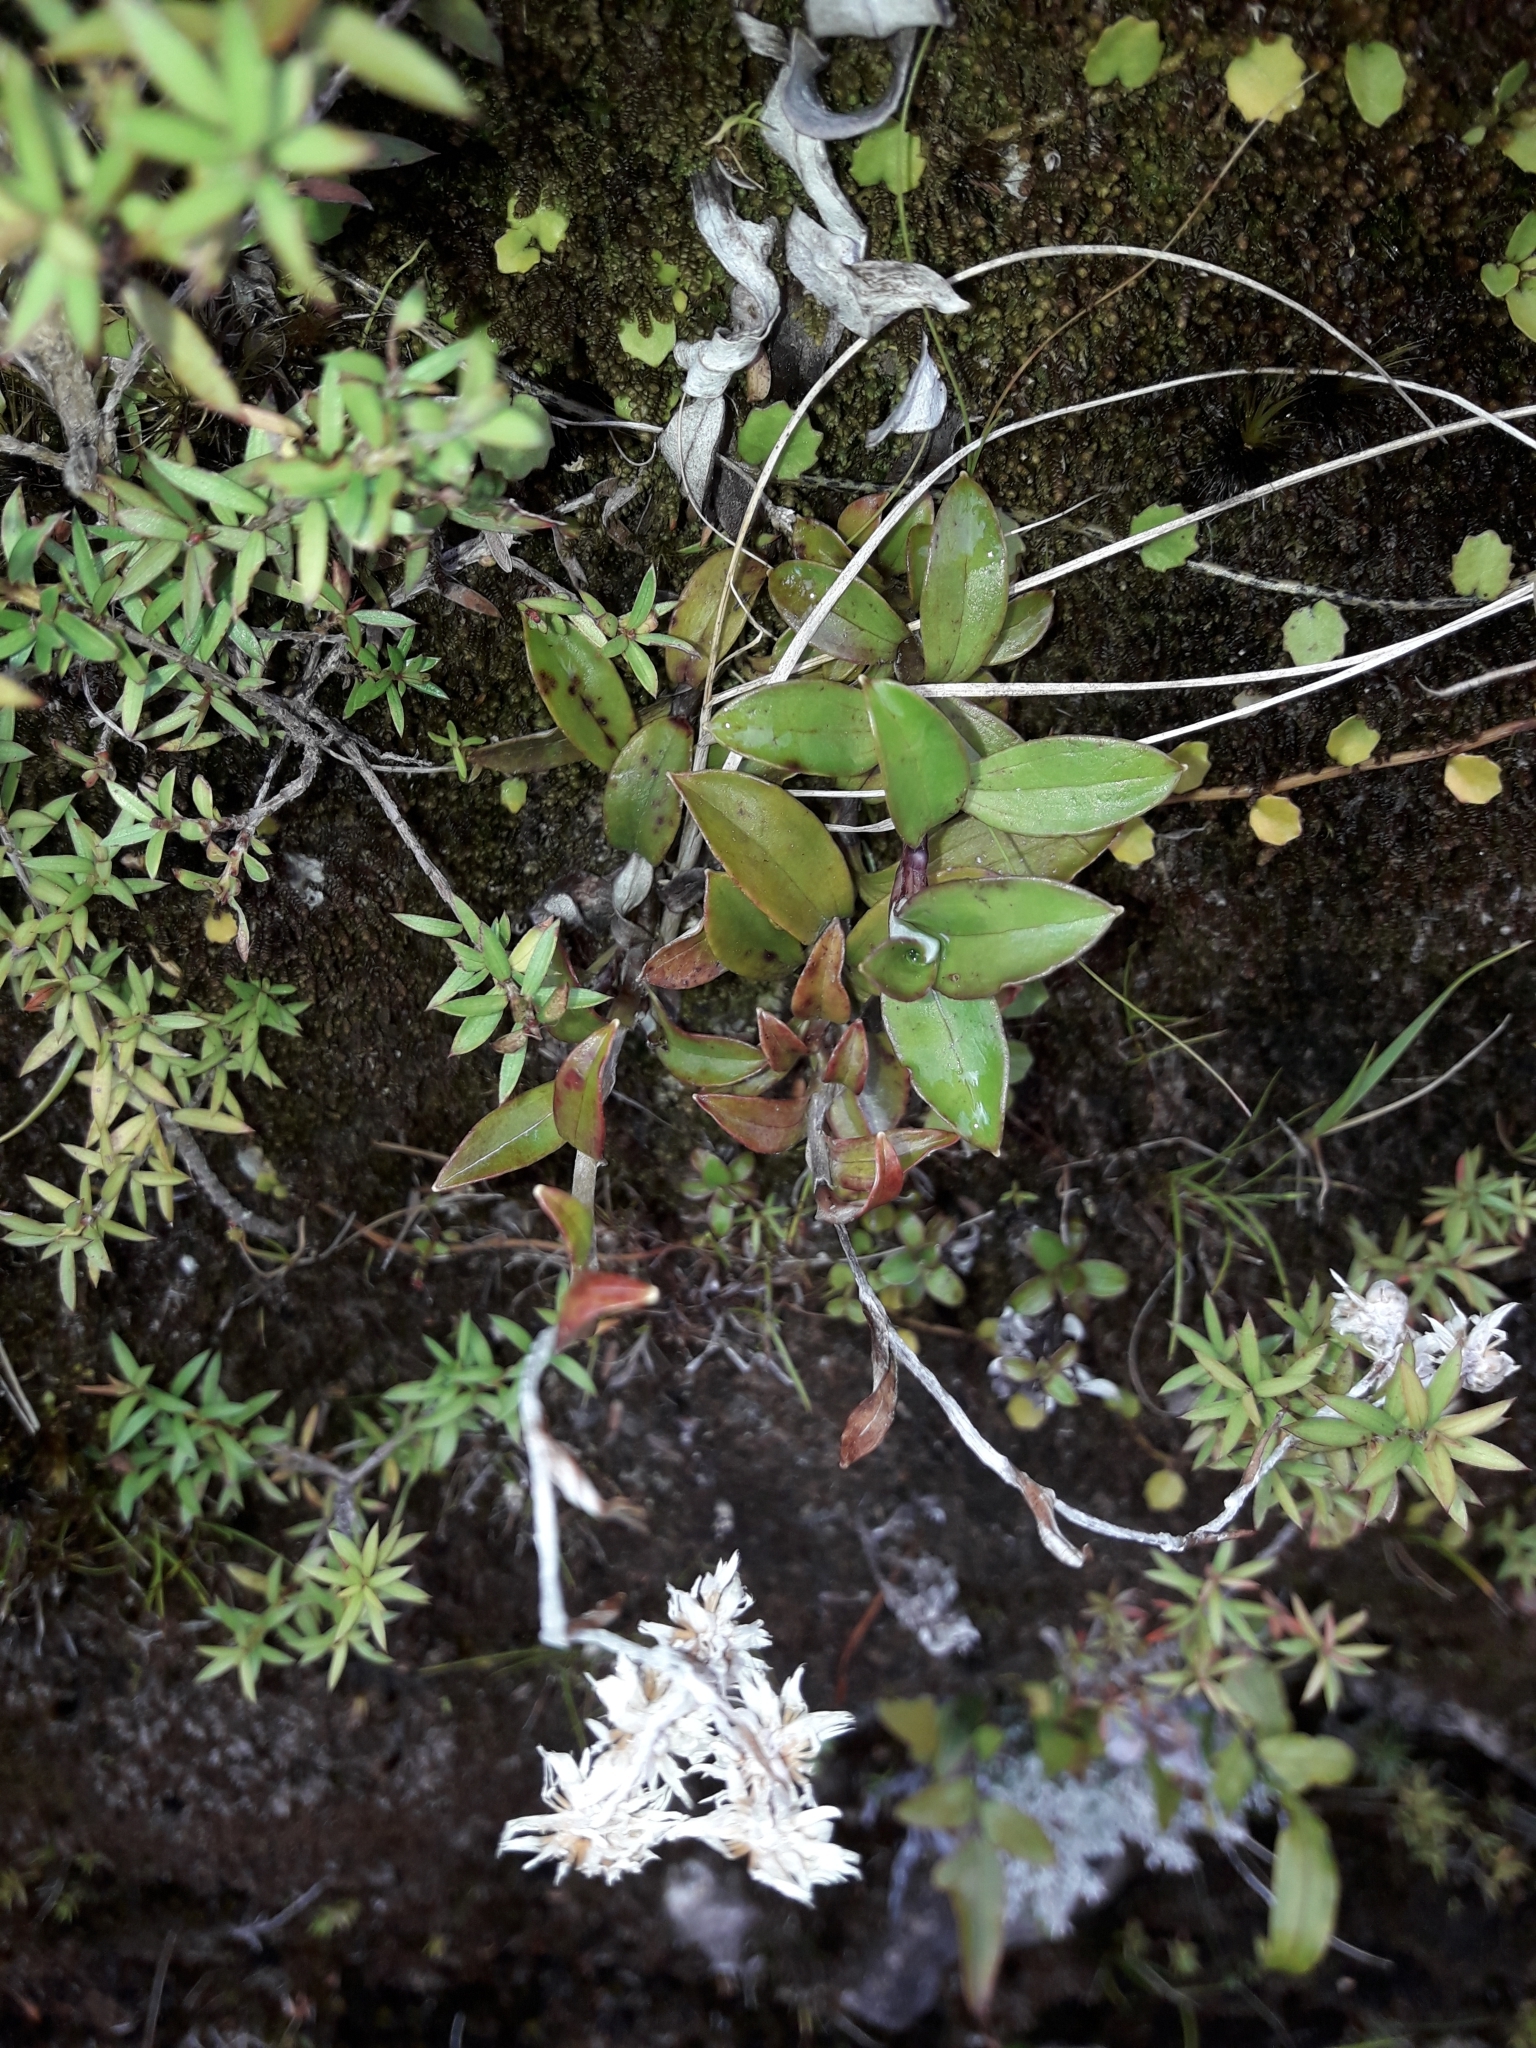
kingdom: Plantae
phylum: Tracheophyta
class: Magnoliopsida
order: Asterales
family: Asteraceae
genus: Anaphalioides
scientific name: Anaphalioides trinervis
